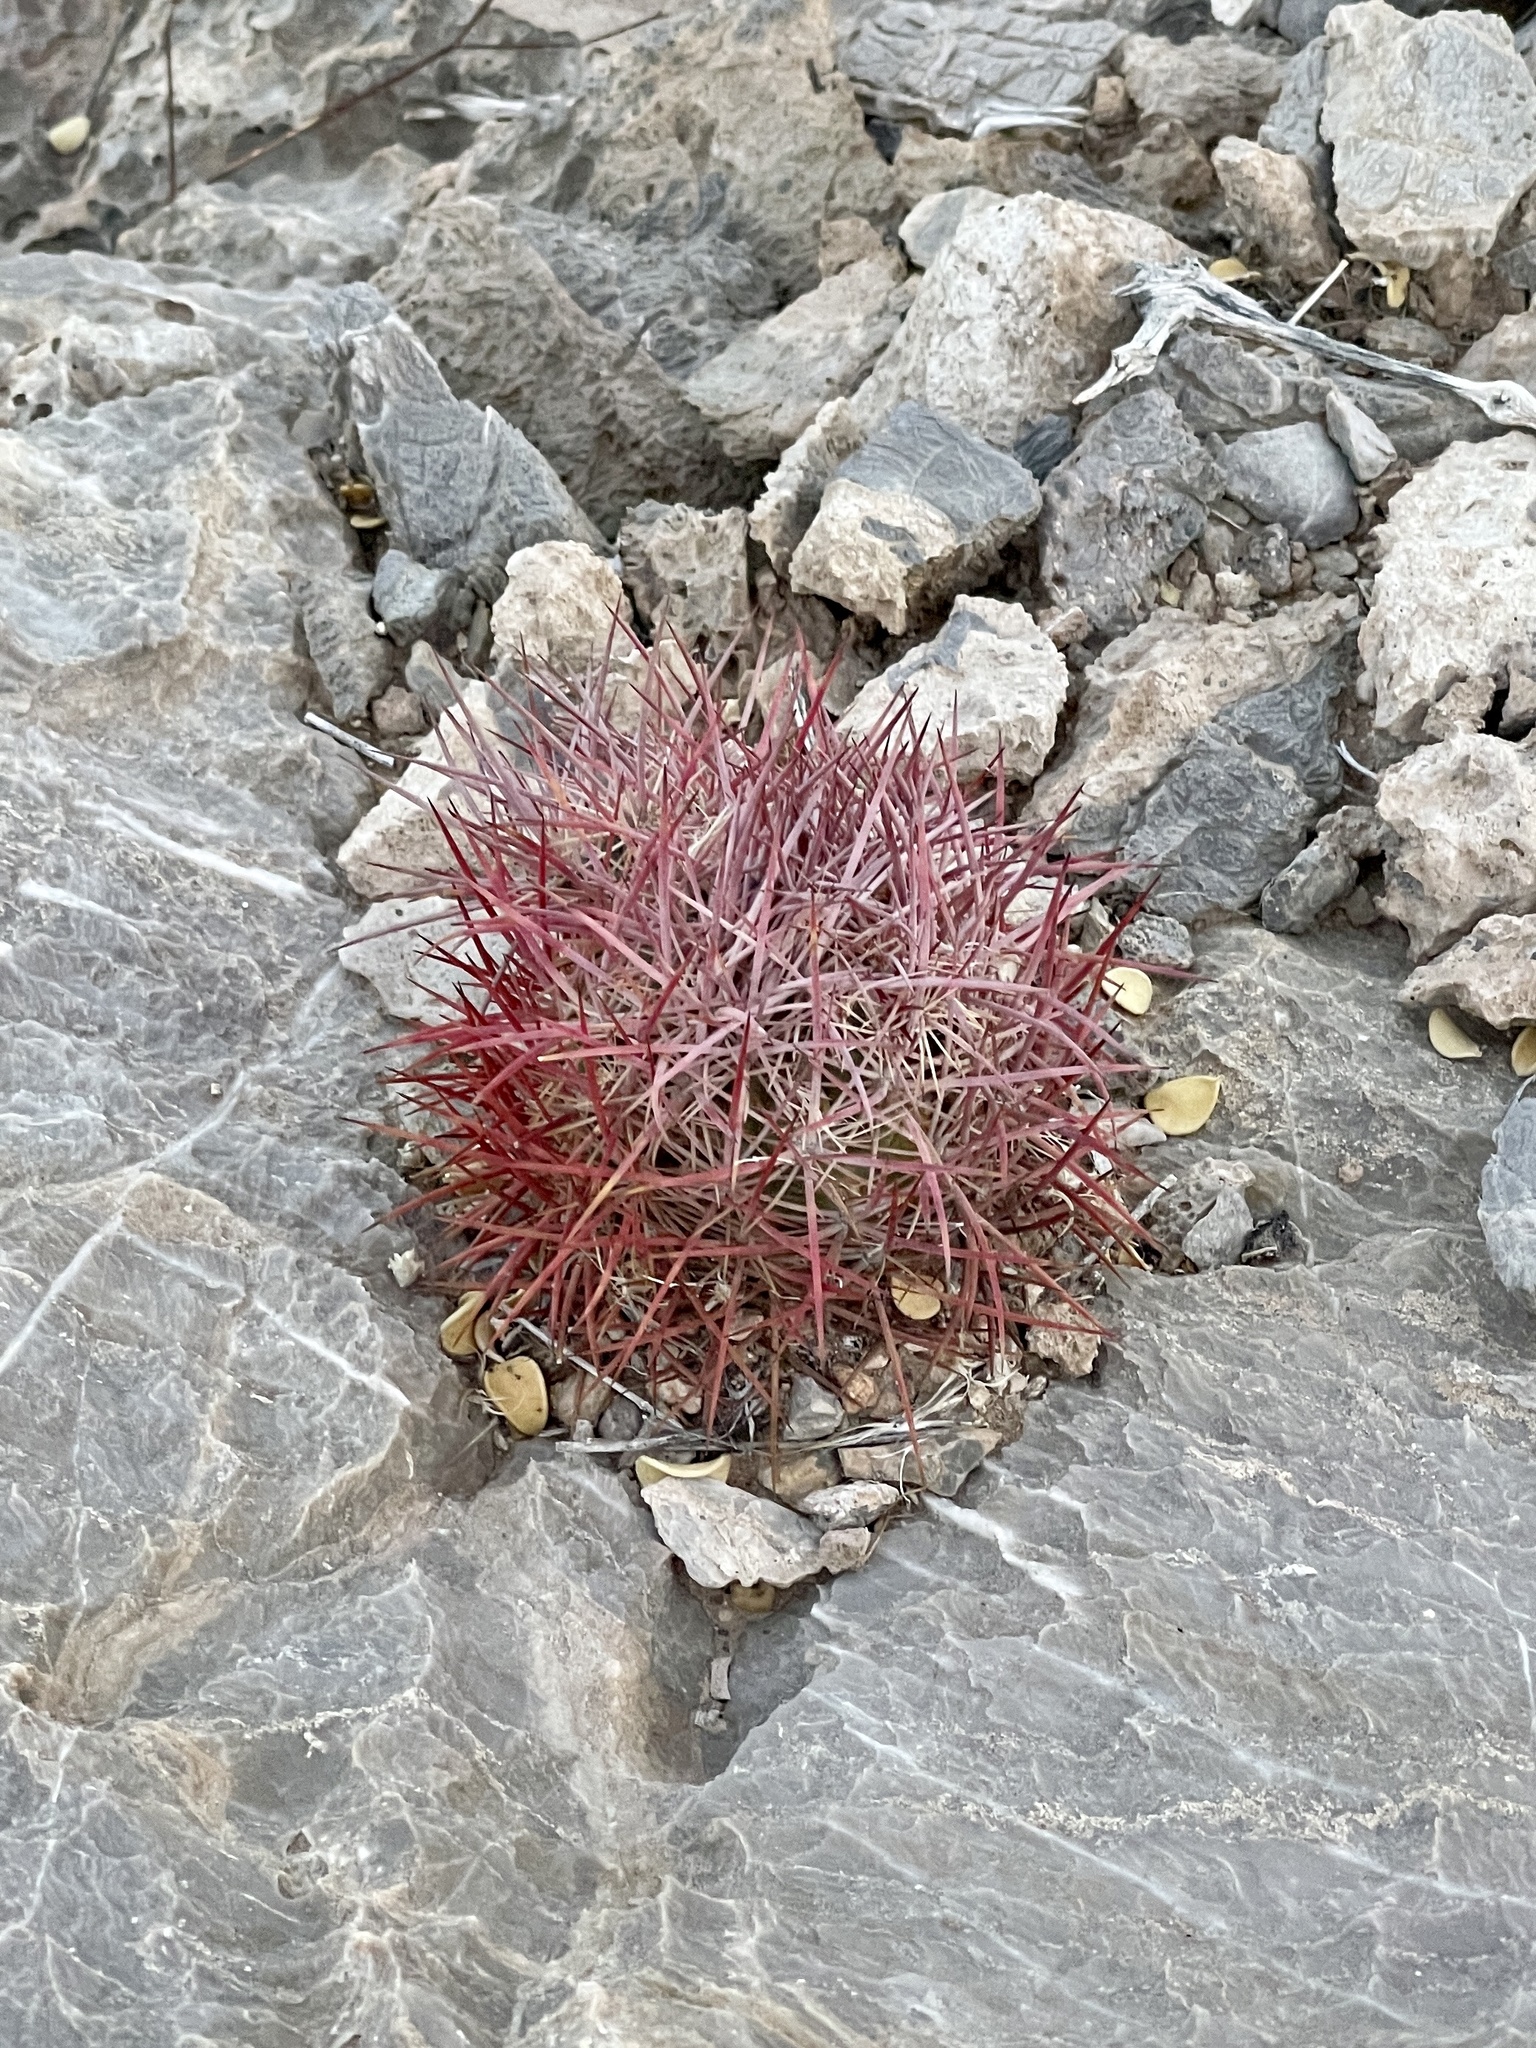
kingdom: Plantae
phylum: Tracheophyta
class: Magnoliopsida
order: Caryophyllales
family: Cactaceae
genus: Sclerocactus
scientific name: Sclerocactus johnsonii
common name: Eight-spine fishhook cactus
